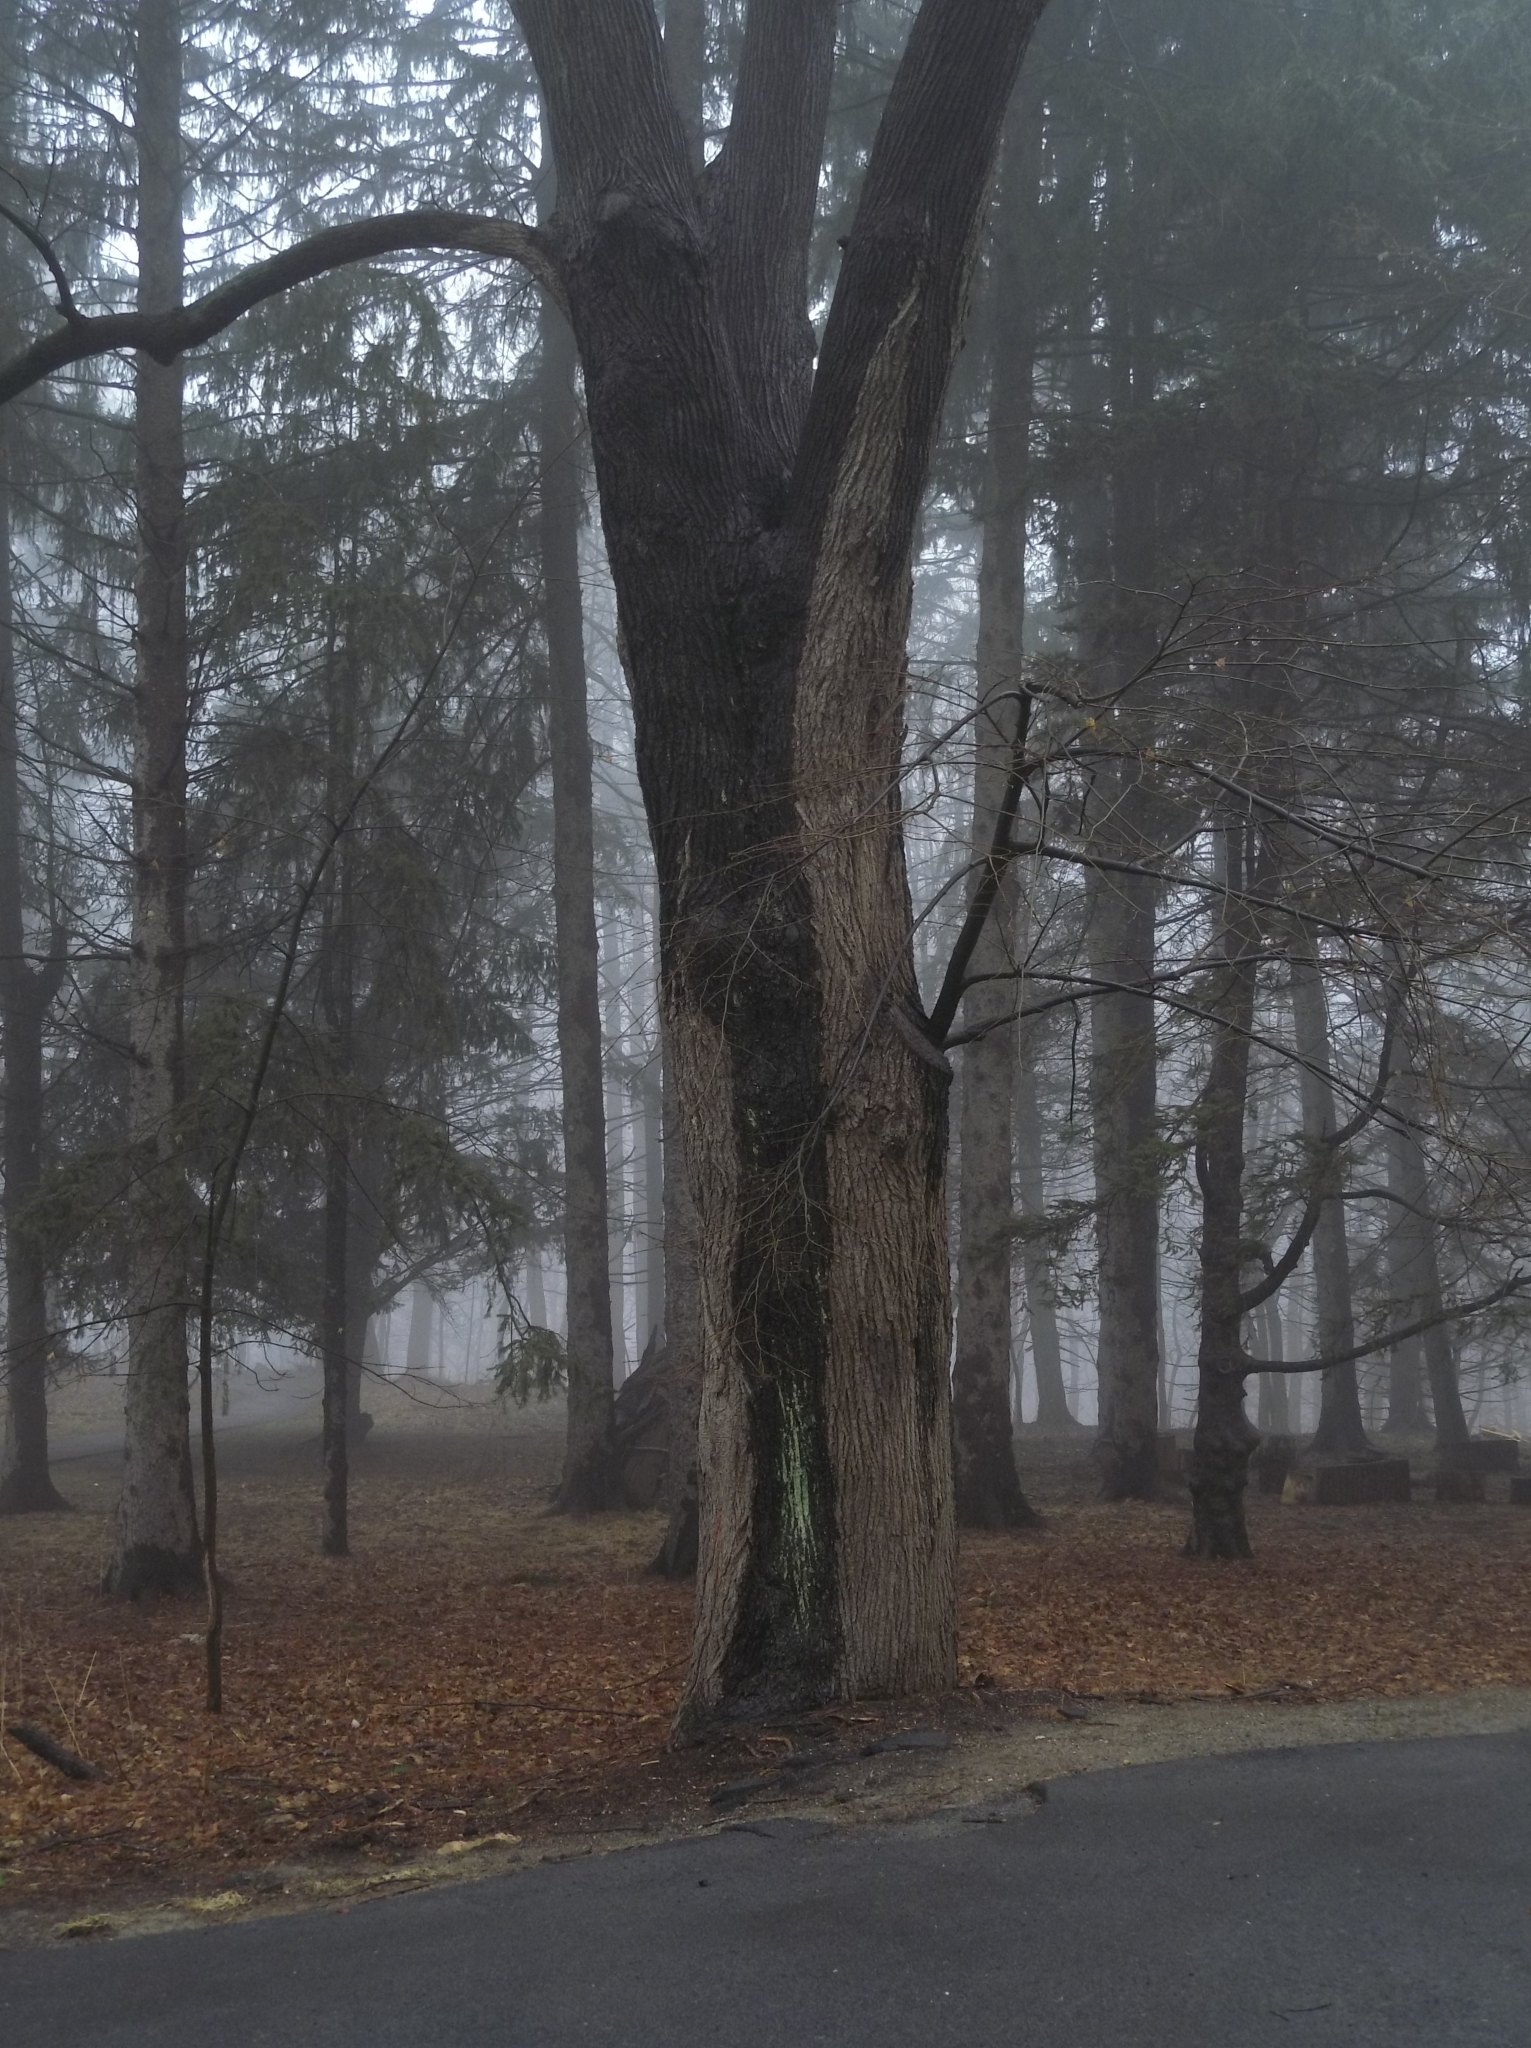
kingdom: Plantae
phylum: Tracheophyta
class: Magnoliopsida
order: Malvales
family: Malvaceae
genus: Tilia
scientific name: Tilia americana
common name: Basswood
